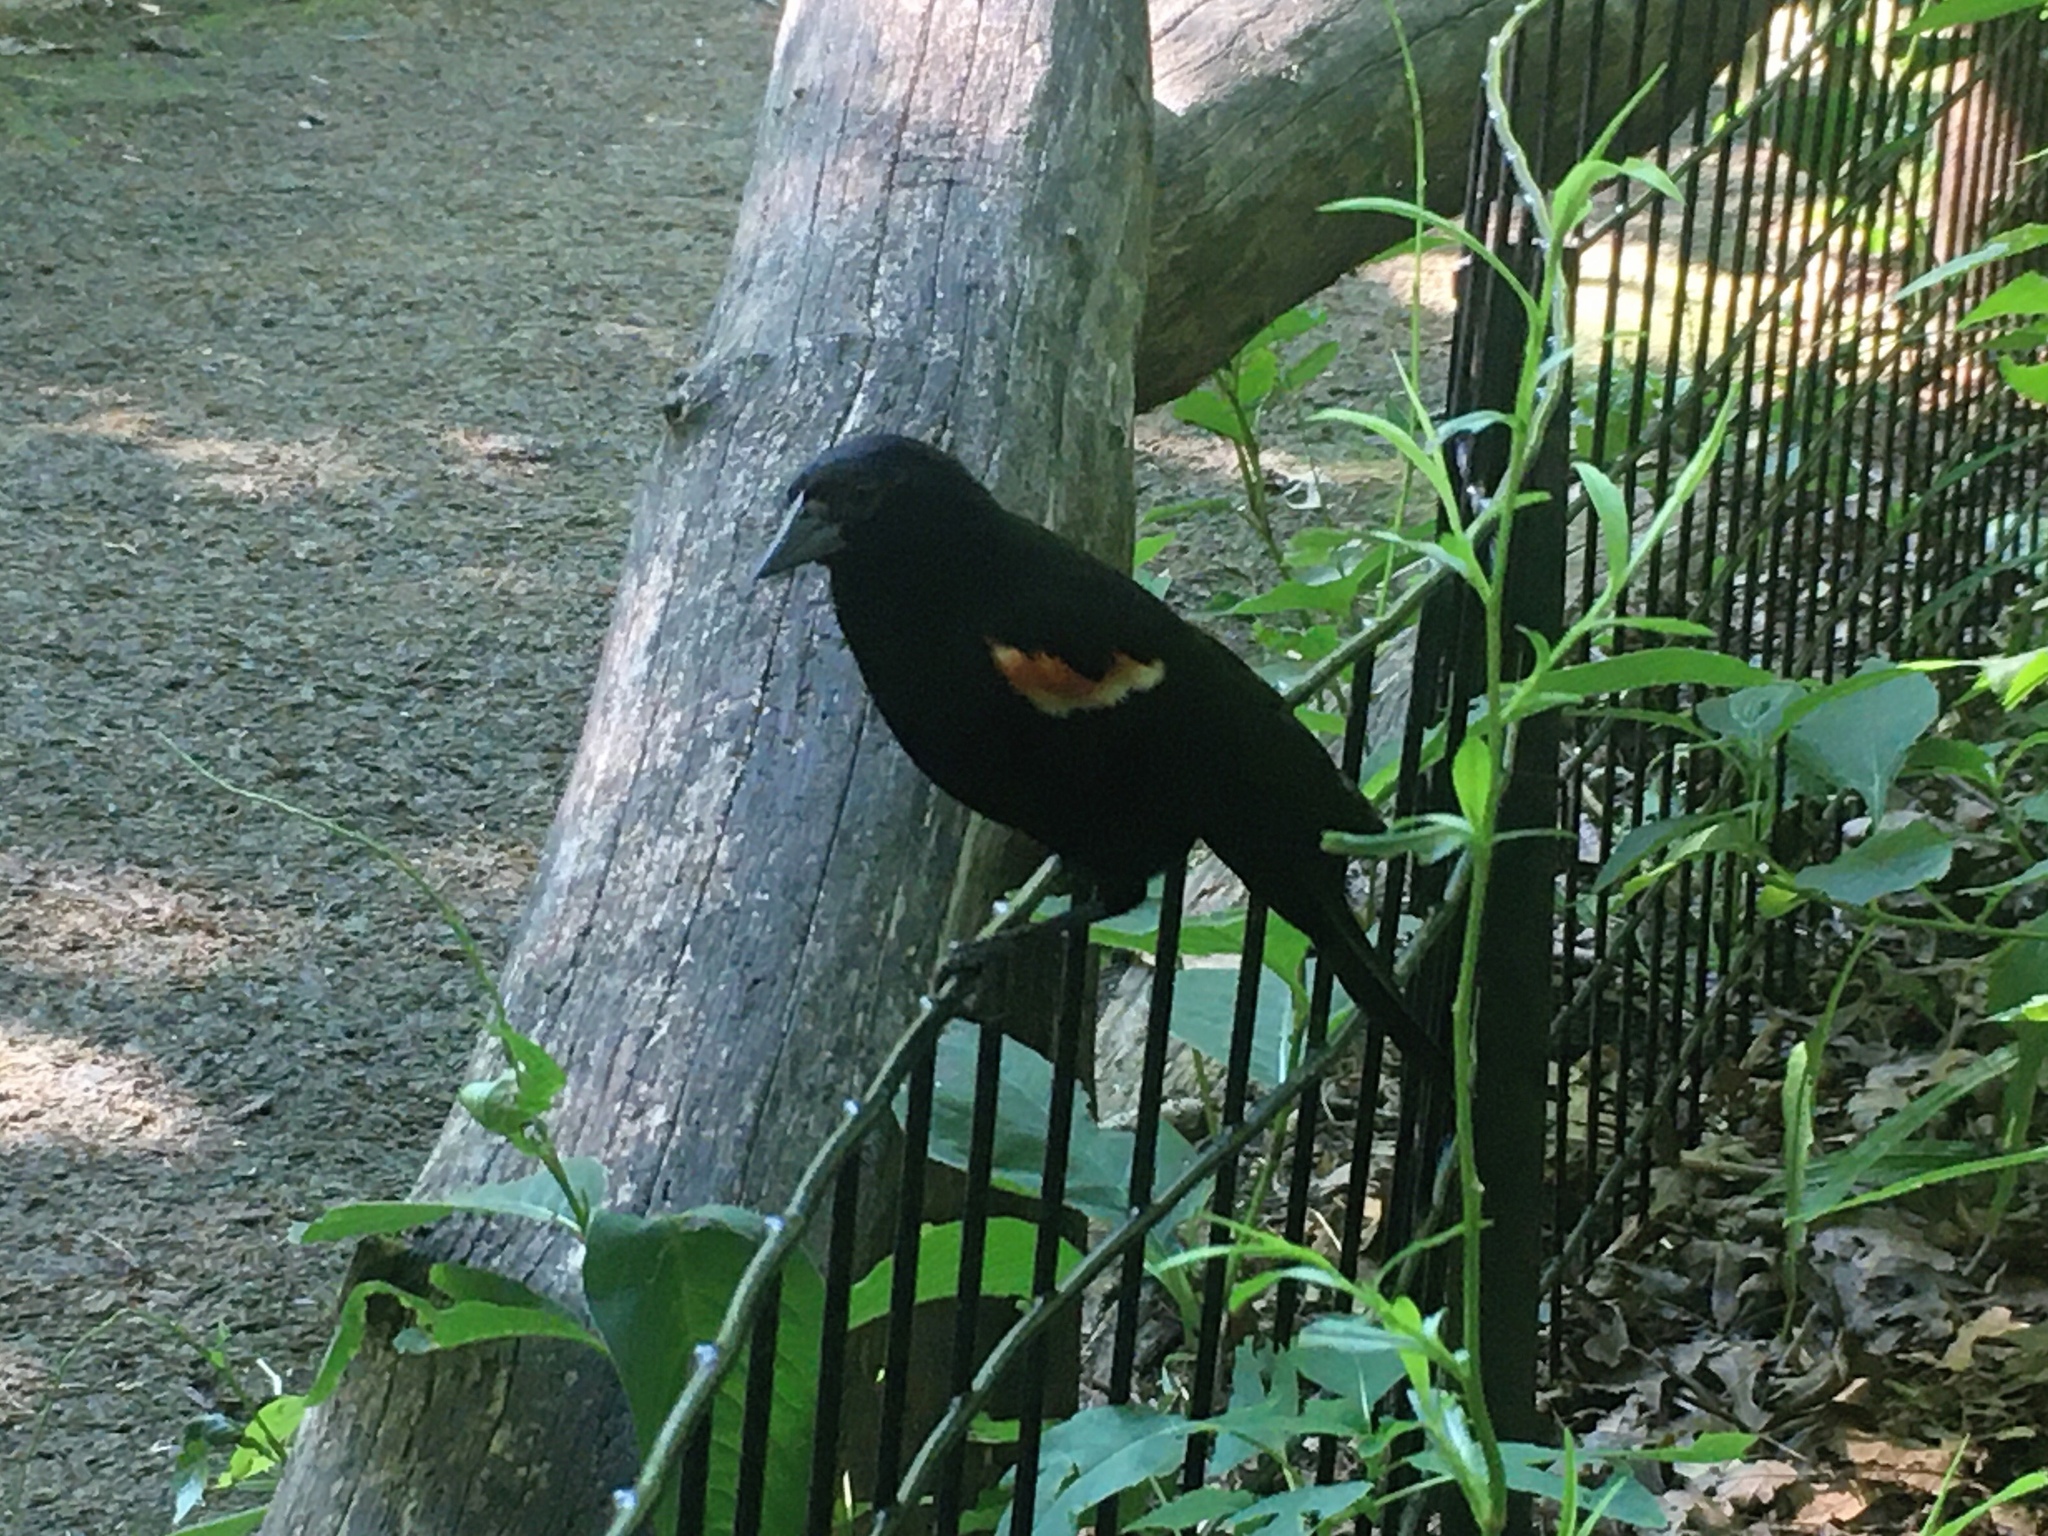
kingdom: Animalia
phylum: Chordata
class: Aves
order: Passeriformes
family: Icteridae
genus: Agelaius
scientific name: Agelaius phoeniceus
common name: Red-winged blackbird
